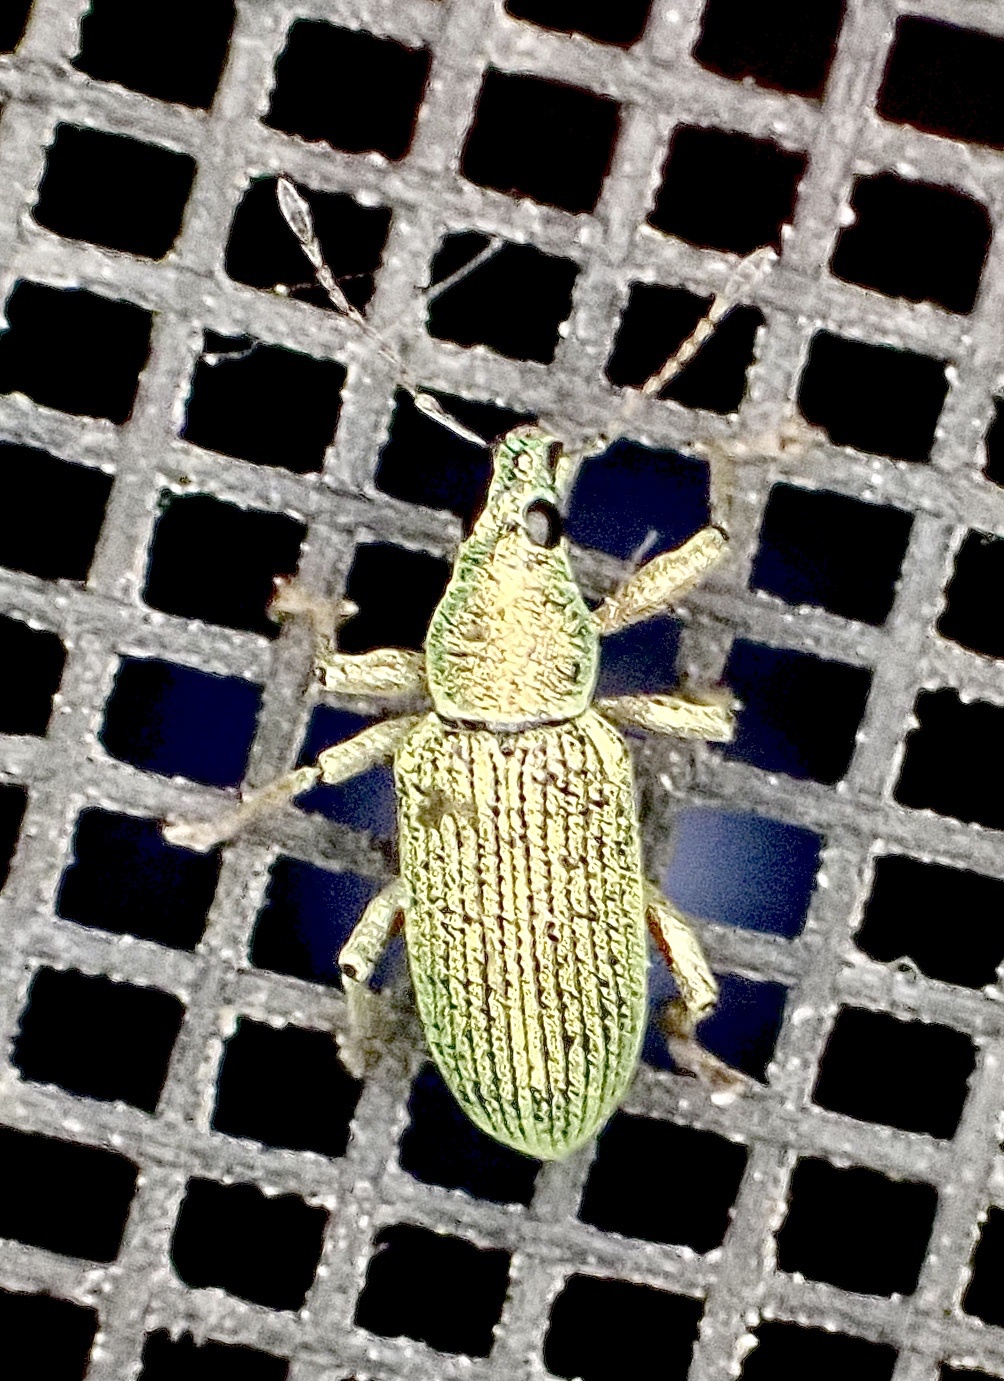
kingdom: Animalia
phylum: Arthropoda
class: Insecta
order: Coleoptera
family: Curculionidae
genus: Polydrusus
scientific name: Polydrusus formosus
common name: Weevil
